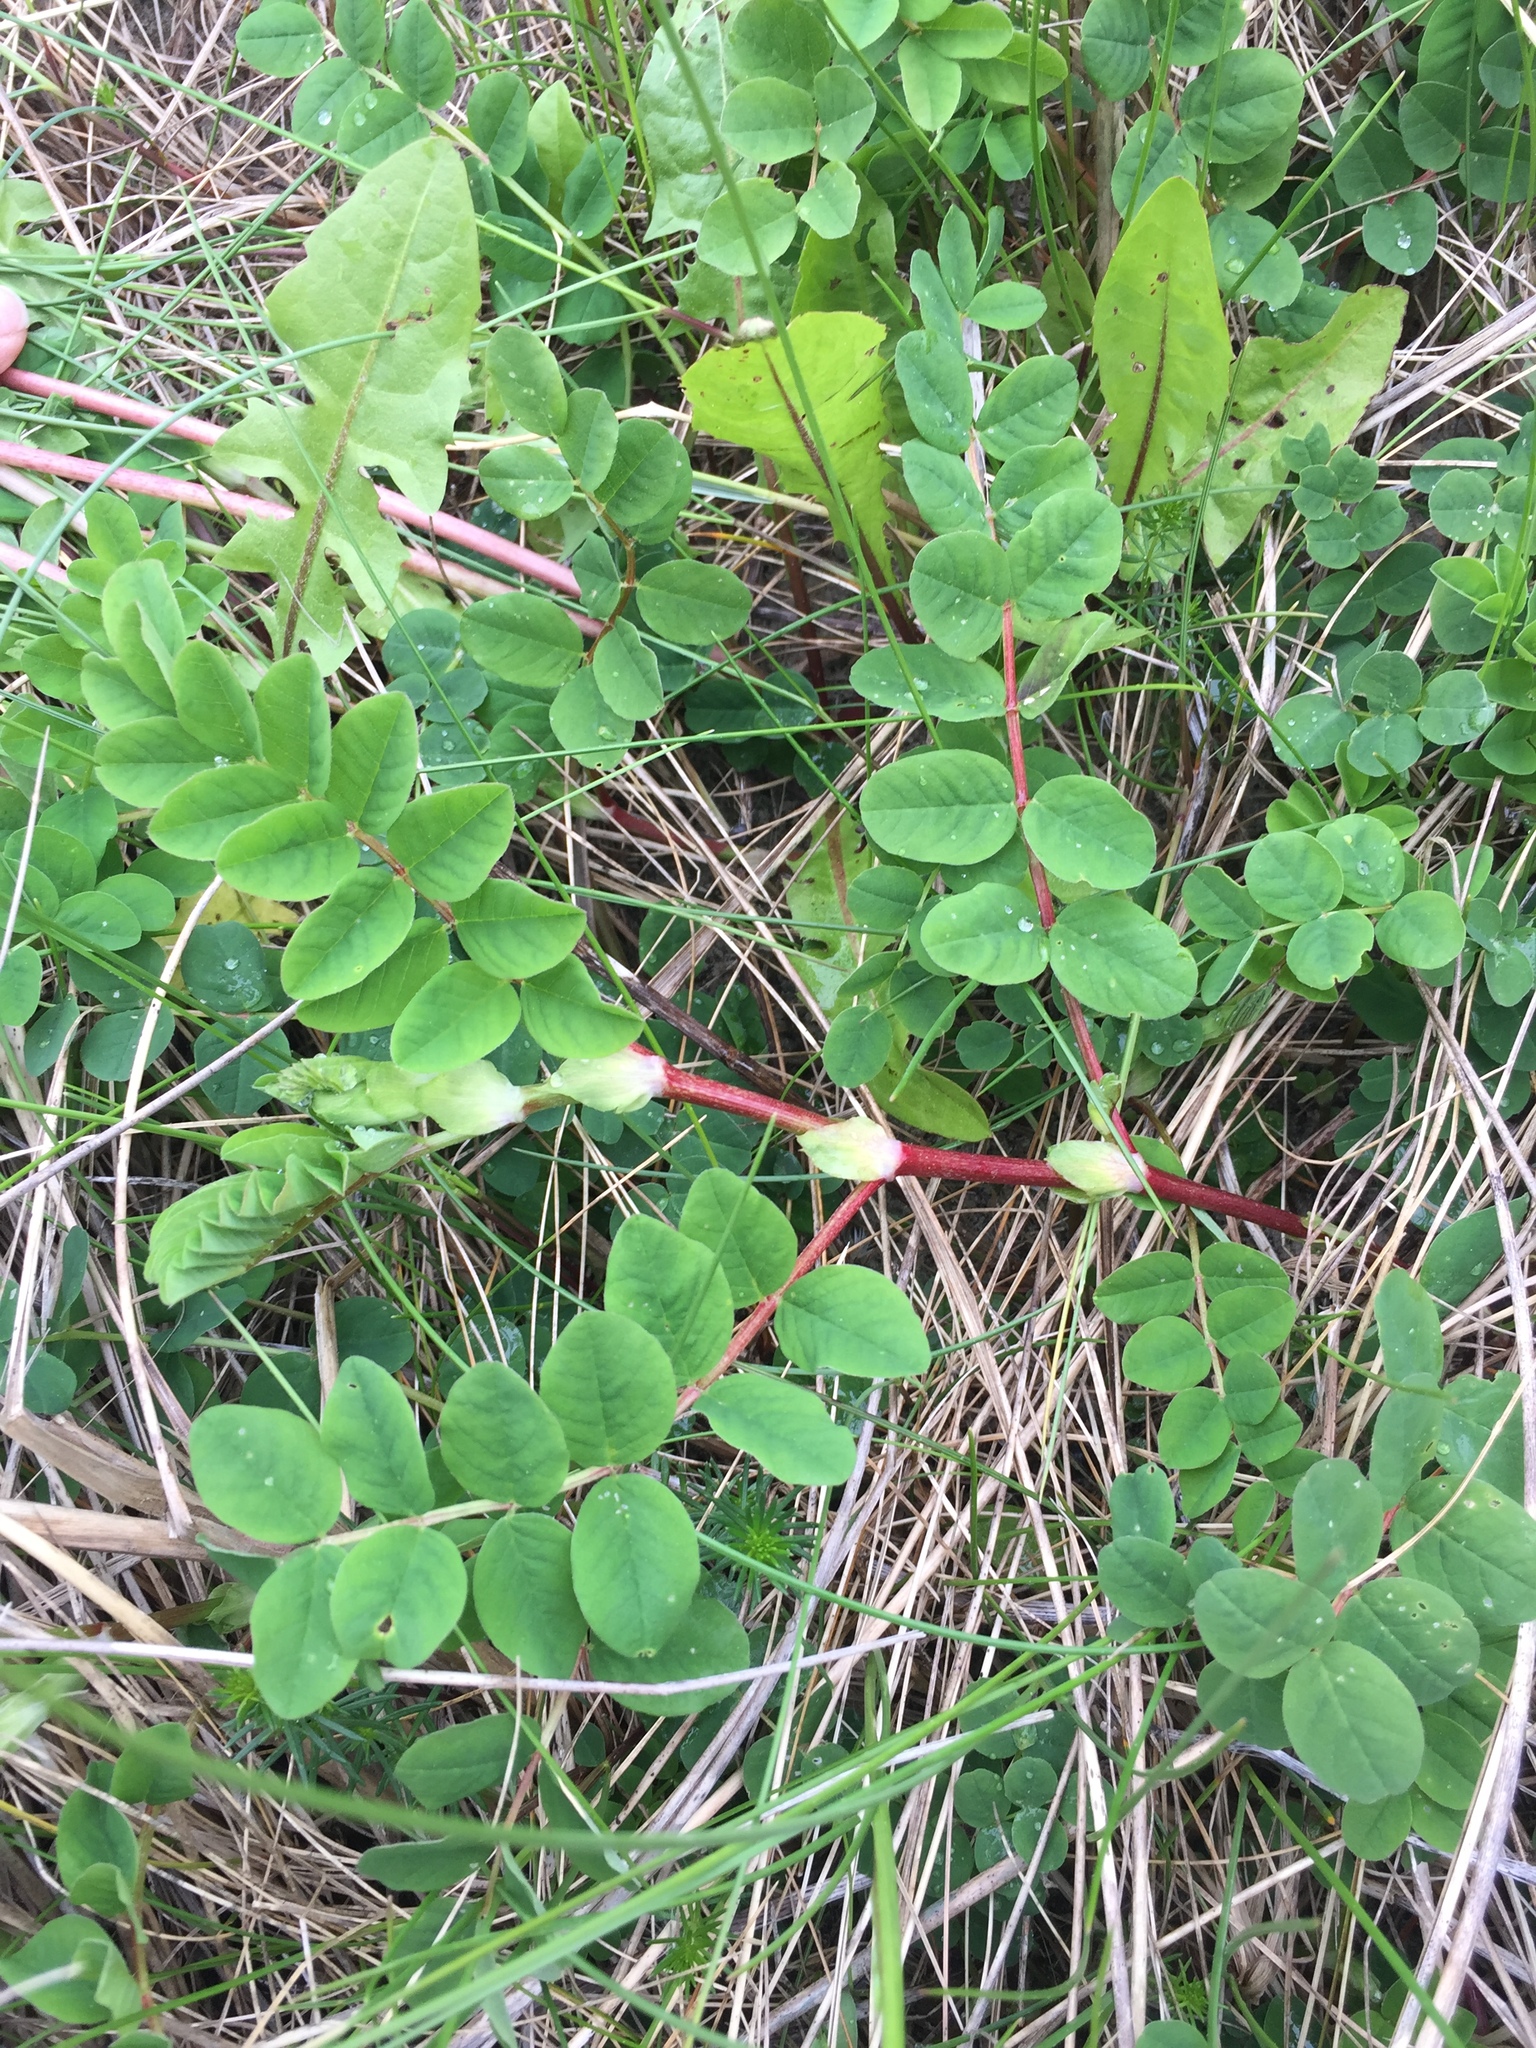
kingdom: Plantae
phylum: Tracheophyta
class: Magnoliopsida
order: Fabales
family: Fabaceae
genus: Astragalus
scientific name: Astragalus glycyphyllos
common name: Wild liquorice
